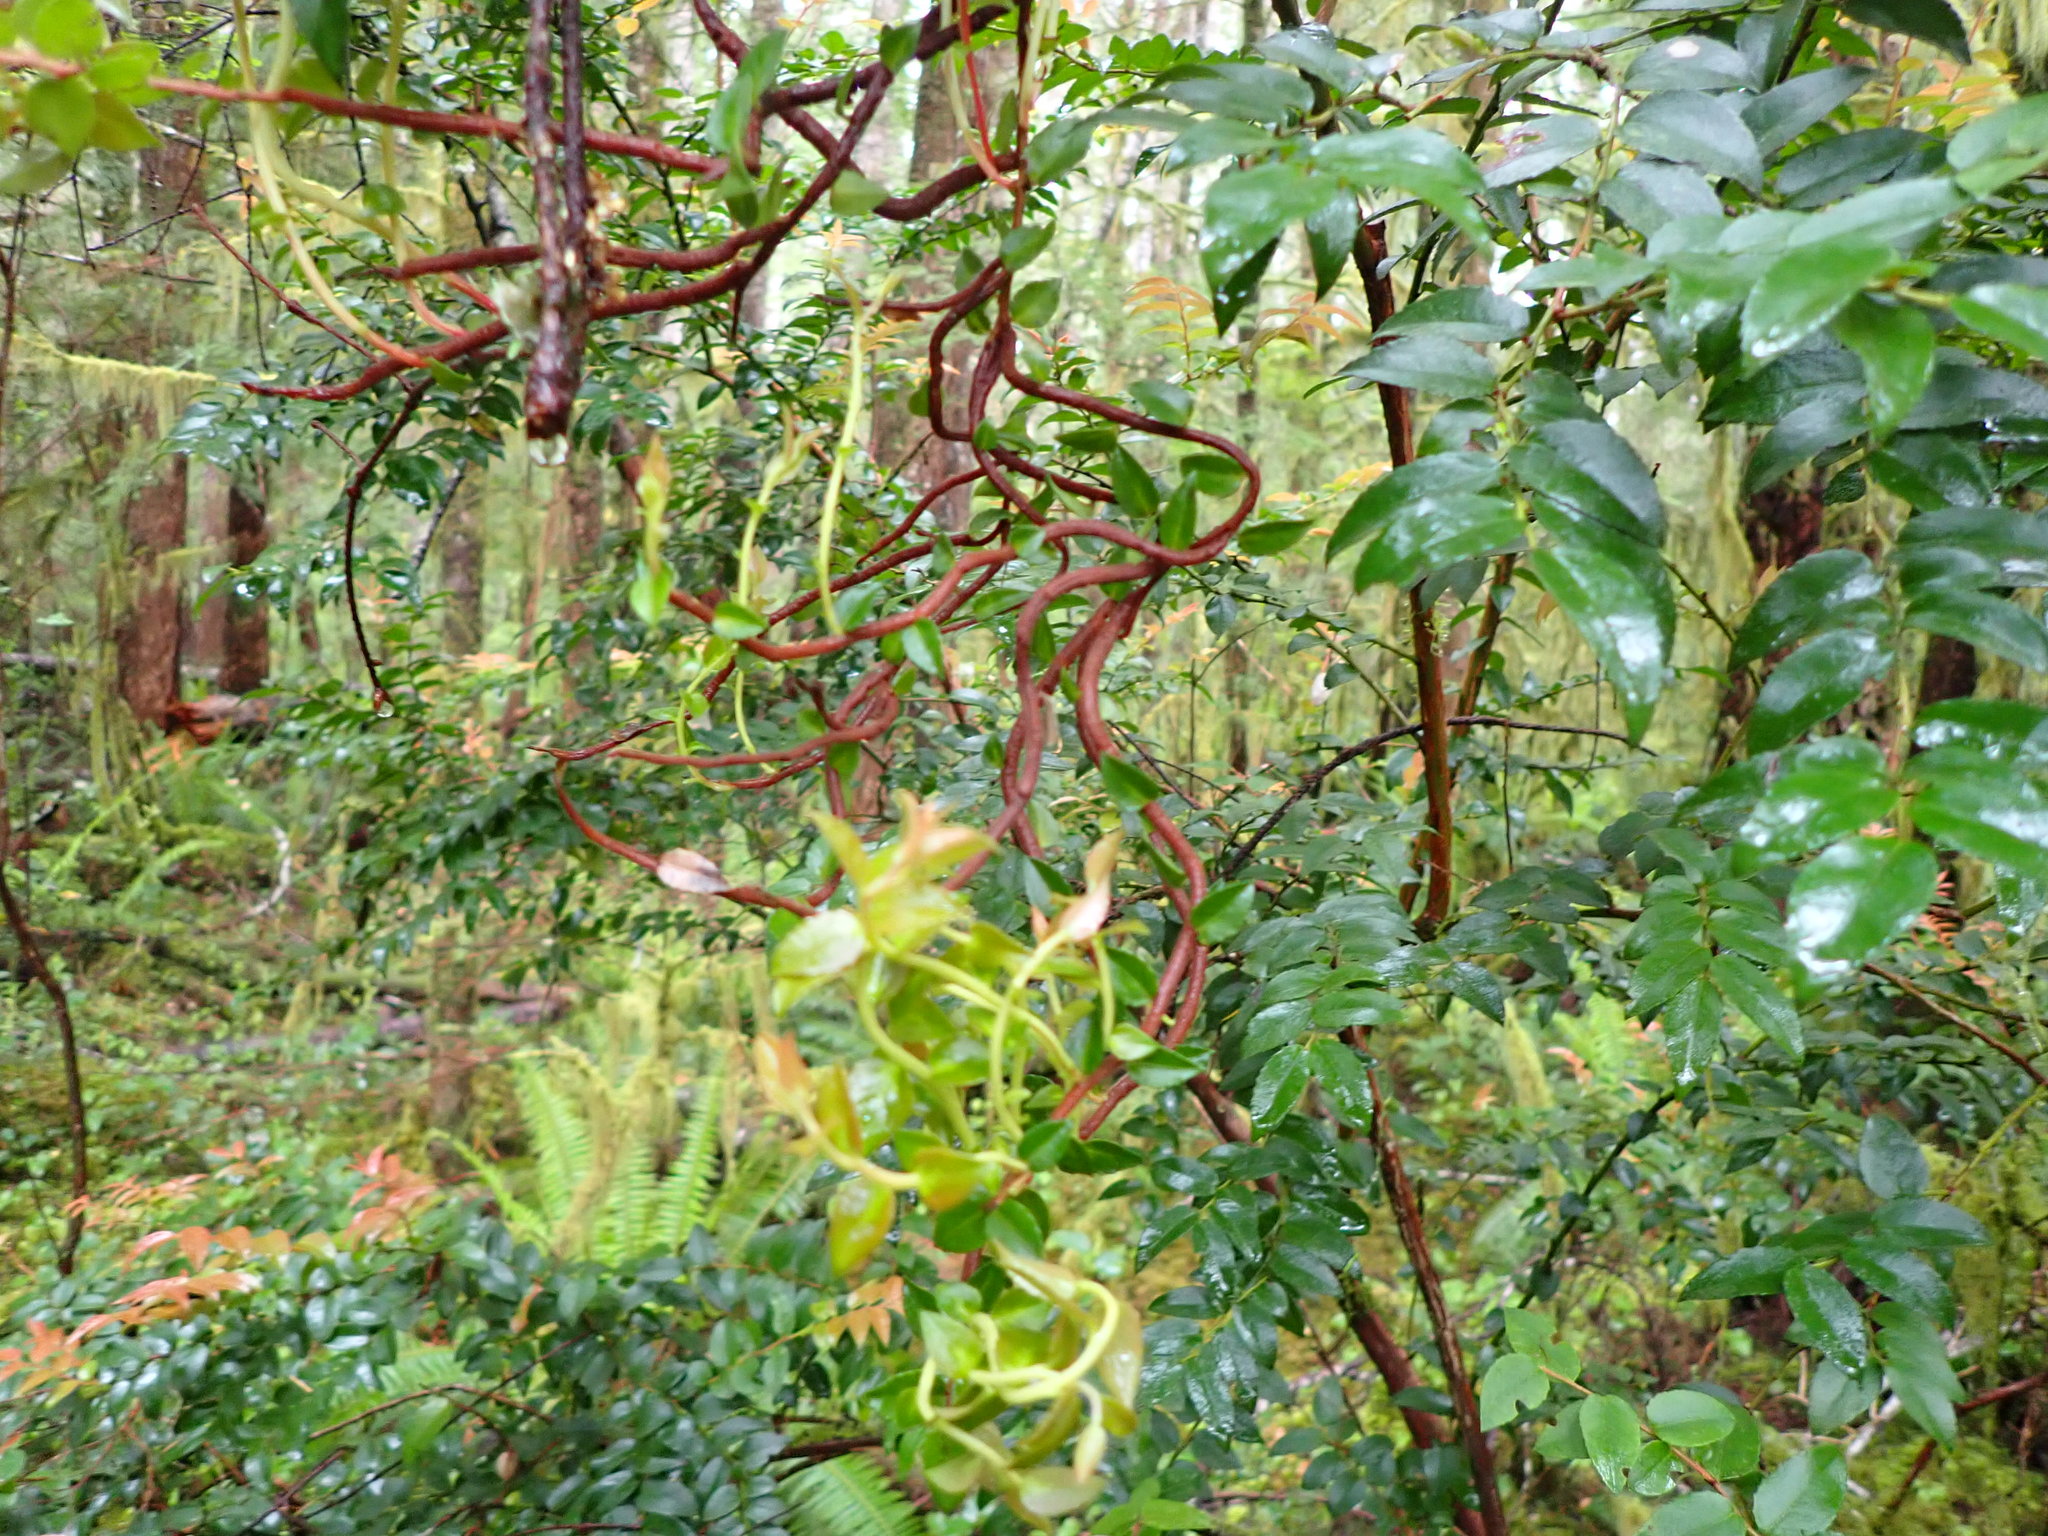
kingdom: Fungi
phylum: Basidiomycota
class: Pucciniomycetes
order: Pucciniales
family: Pucciniastraceae
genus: Calyptospora
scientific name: Calyptospora
